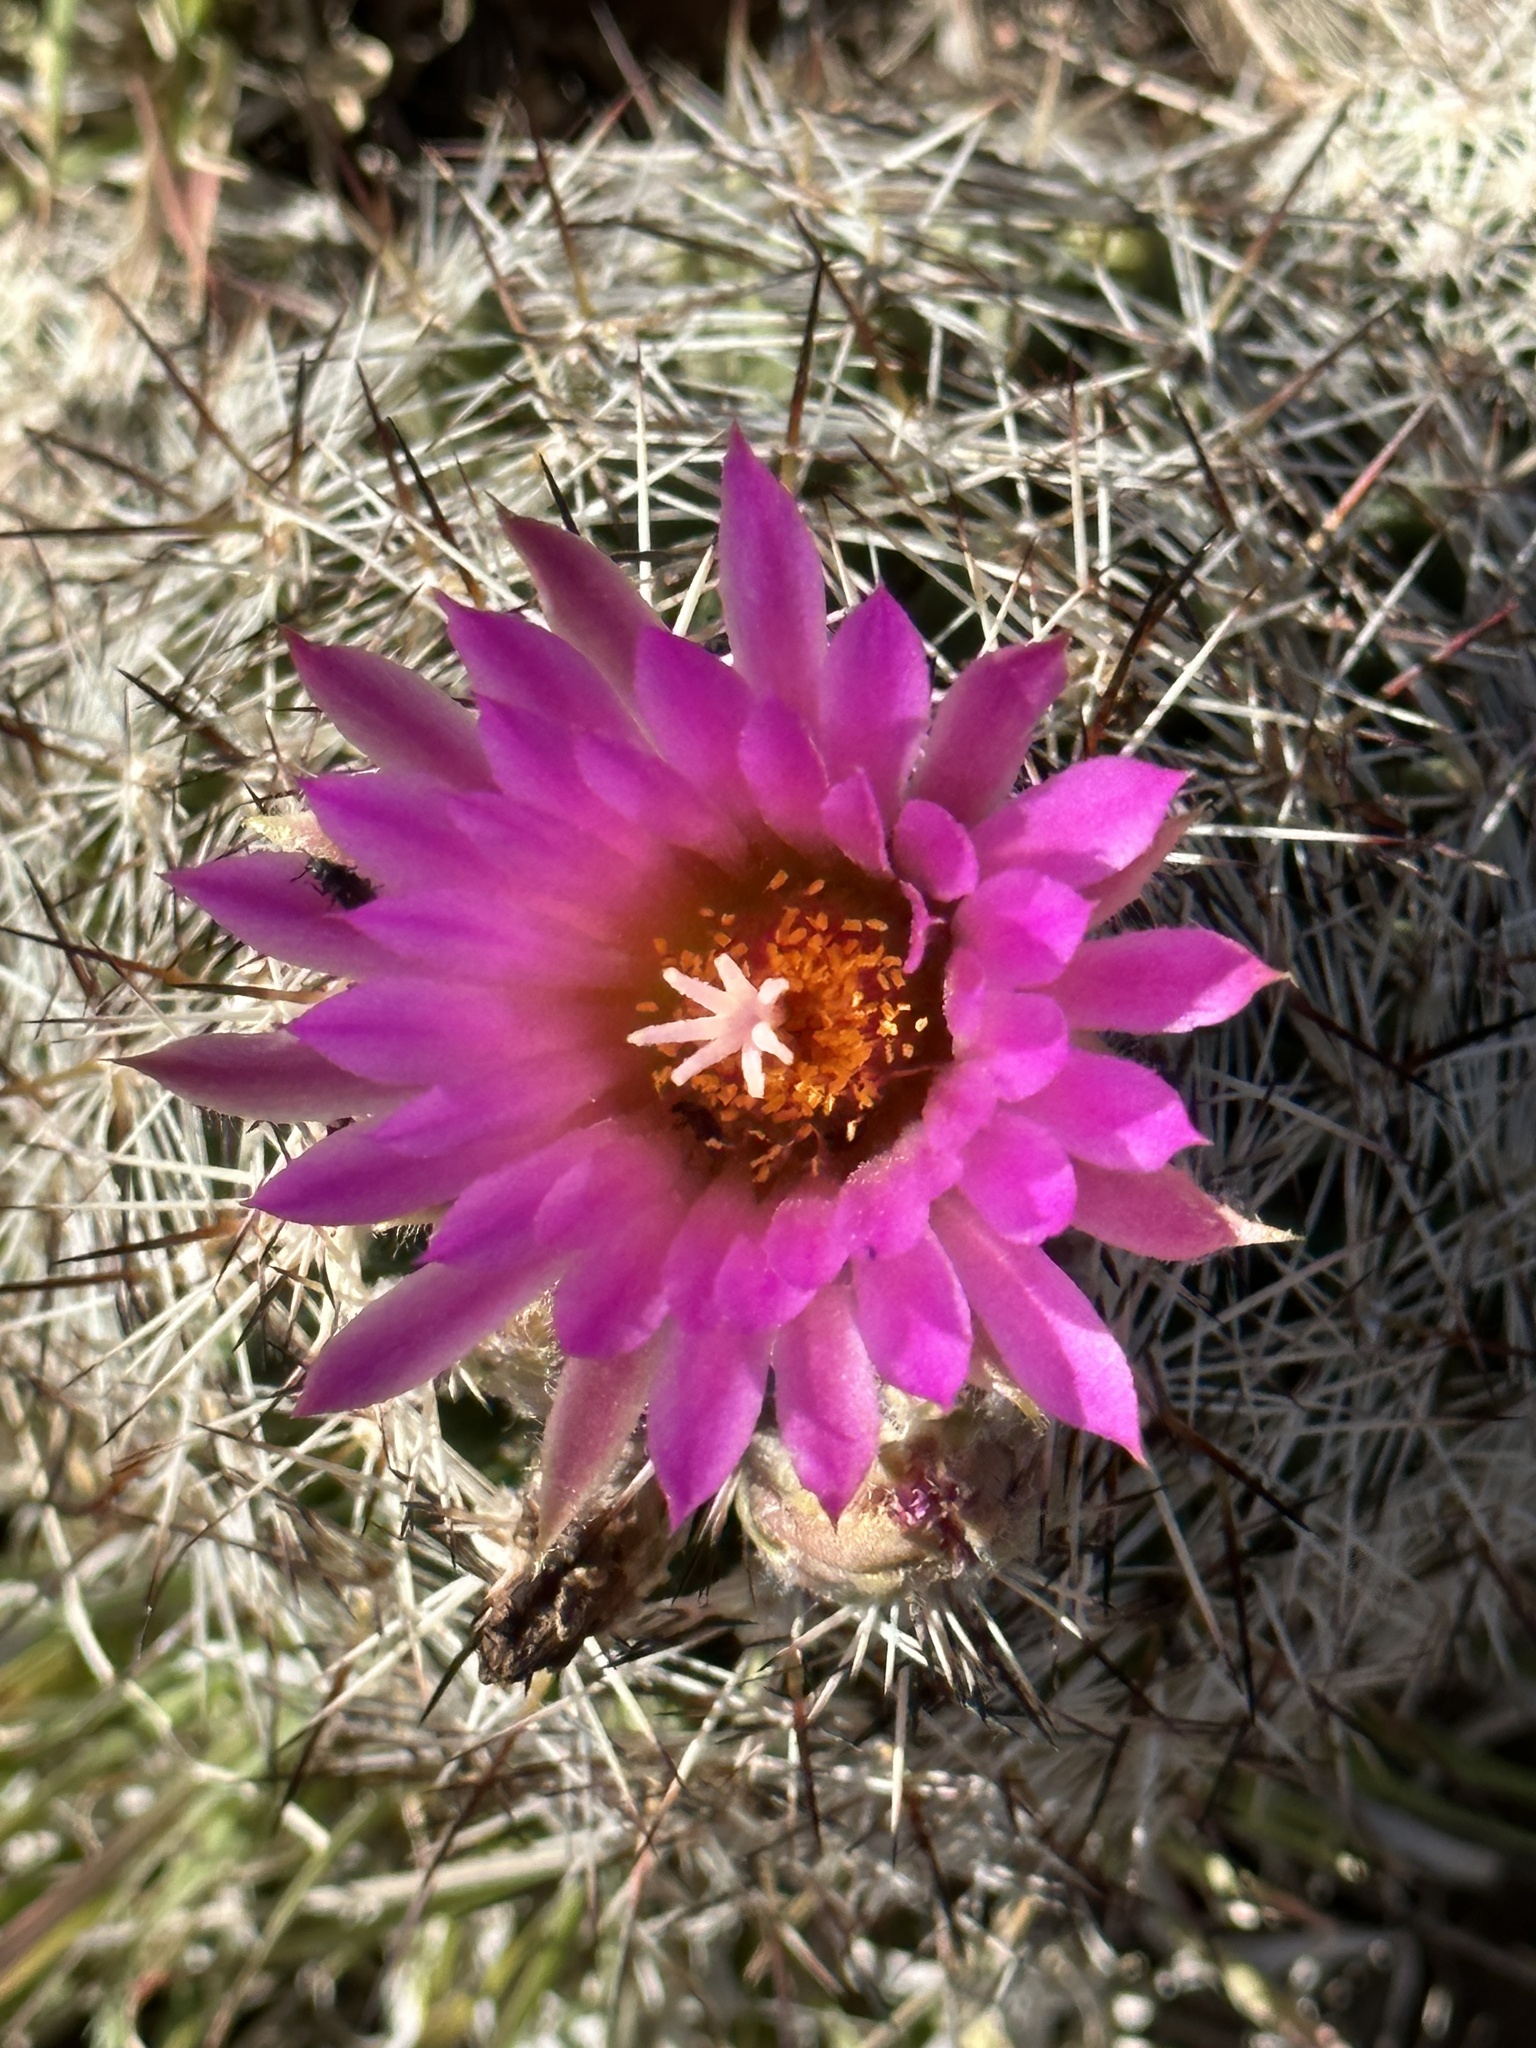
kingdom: Plantae
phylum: Tracheophyta
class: Magnoliopsida
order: Caryophyllales
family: Cactaceae
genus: Pelecyphora
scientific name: Pelecyphora vivipara
